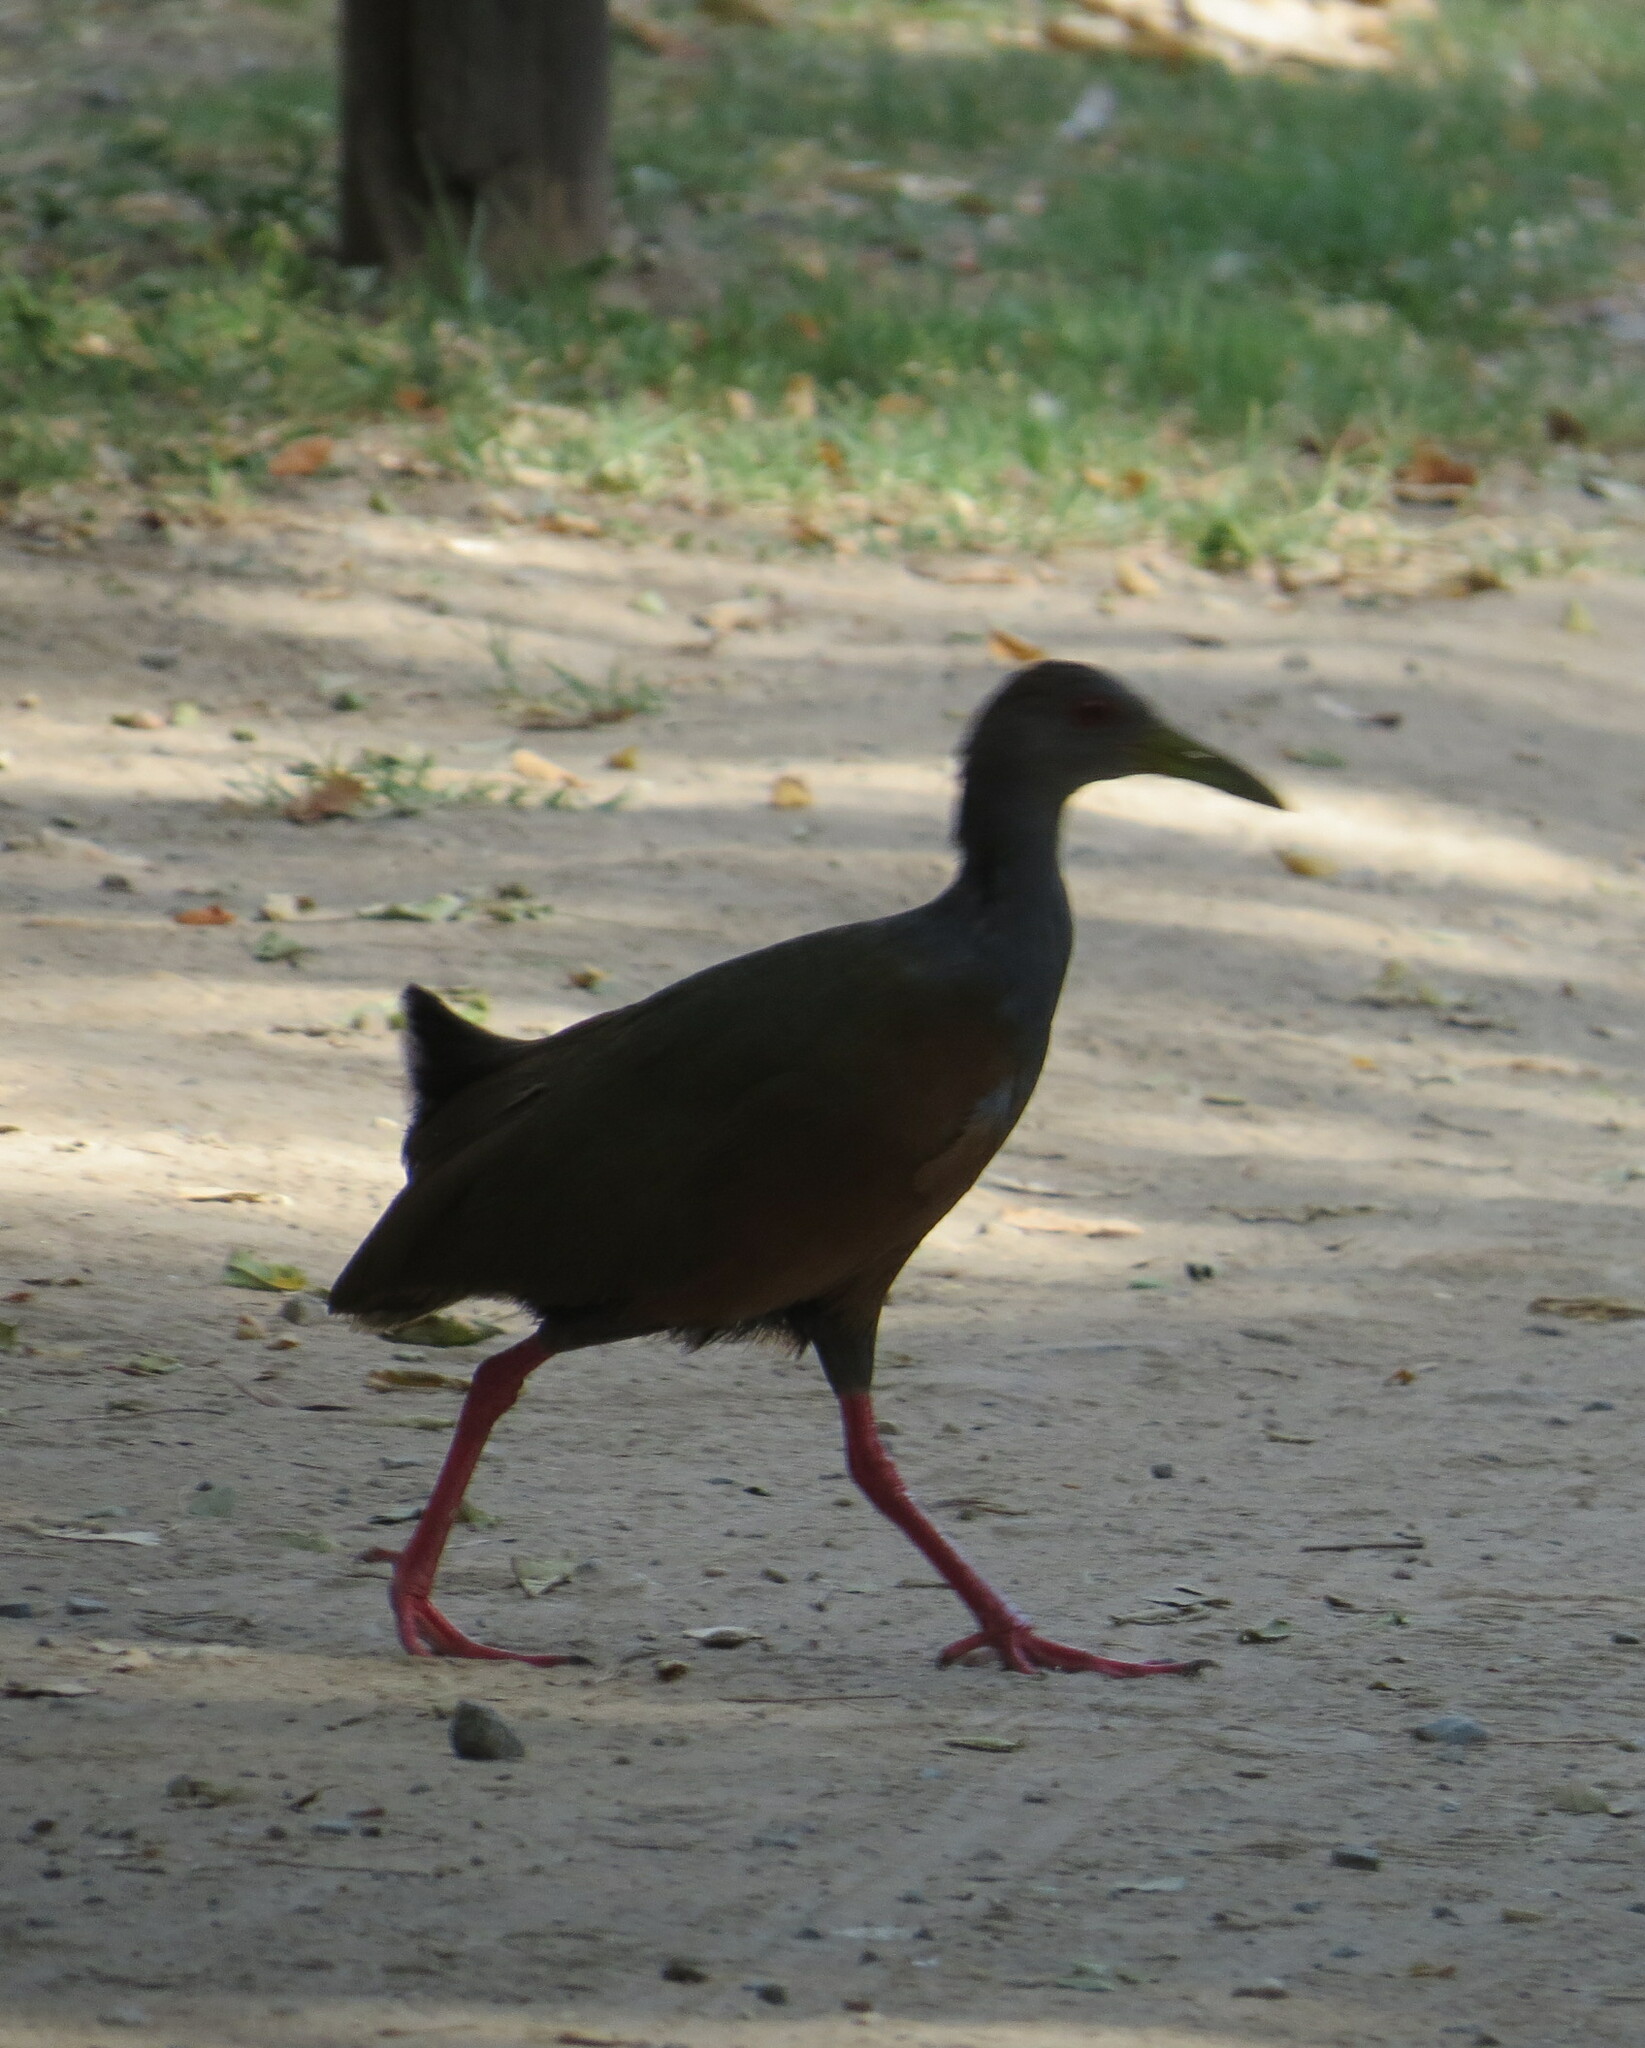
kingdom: Animalia
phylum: Chordata
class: Aves
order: Gruiformes
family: Rallidae
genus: Aramides
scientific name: Aramides cajanea
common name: Gray-necked wood-rail
